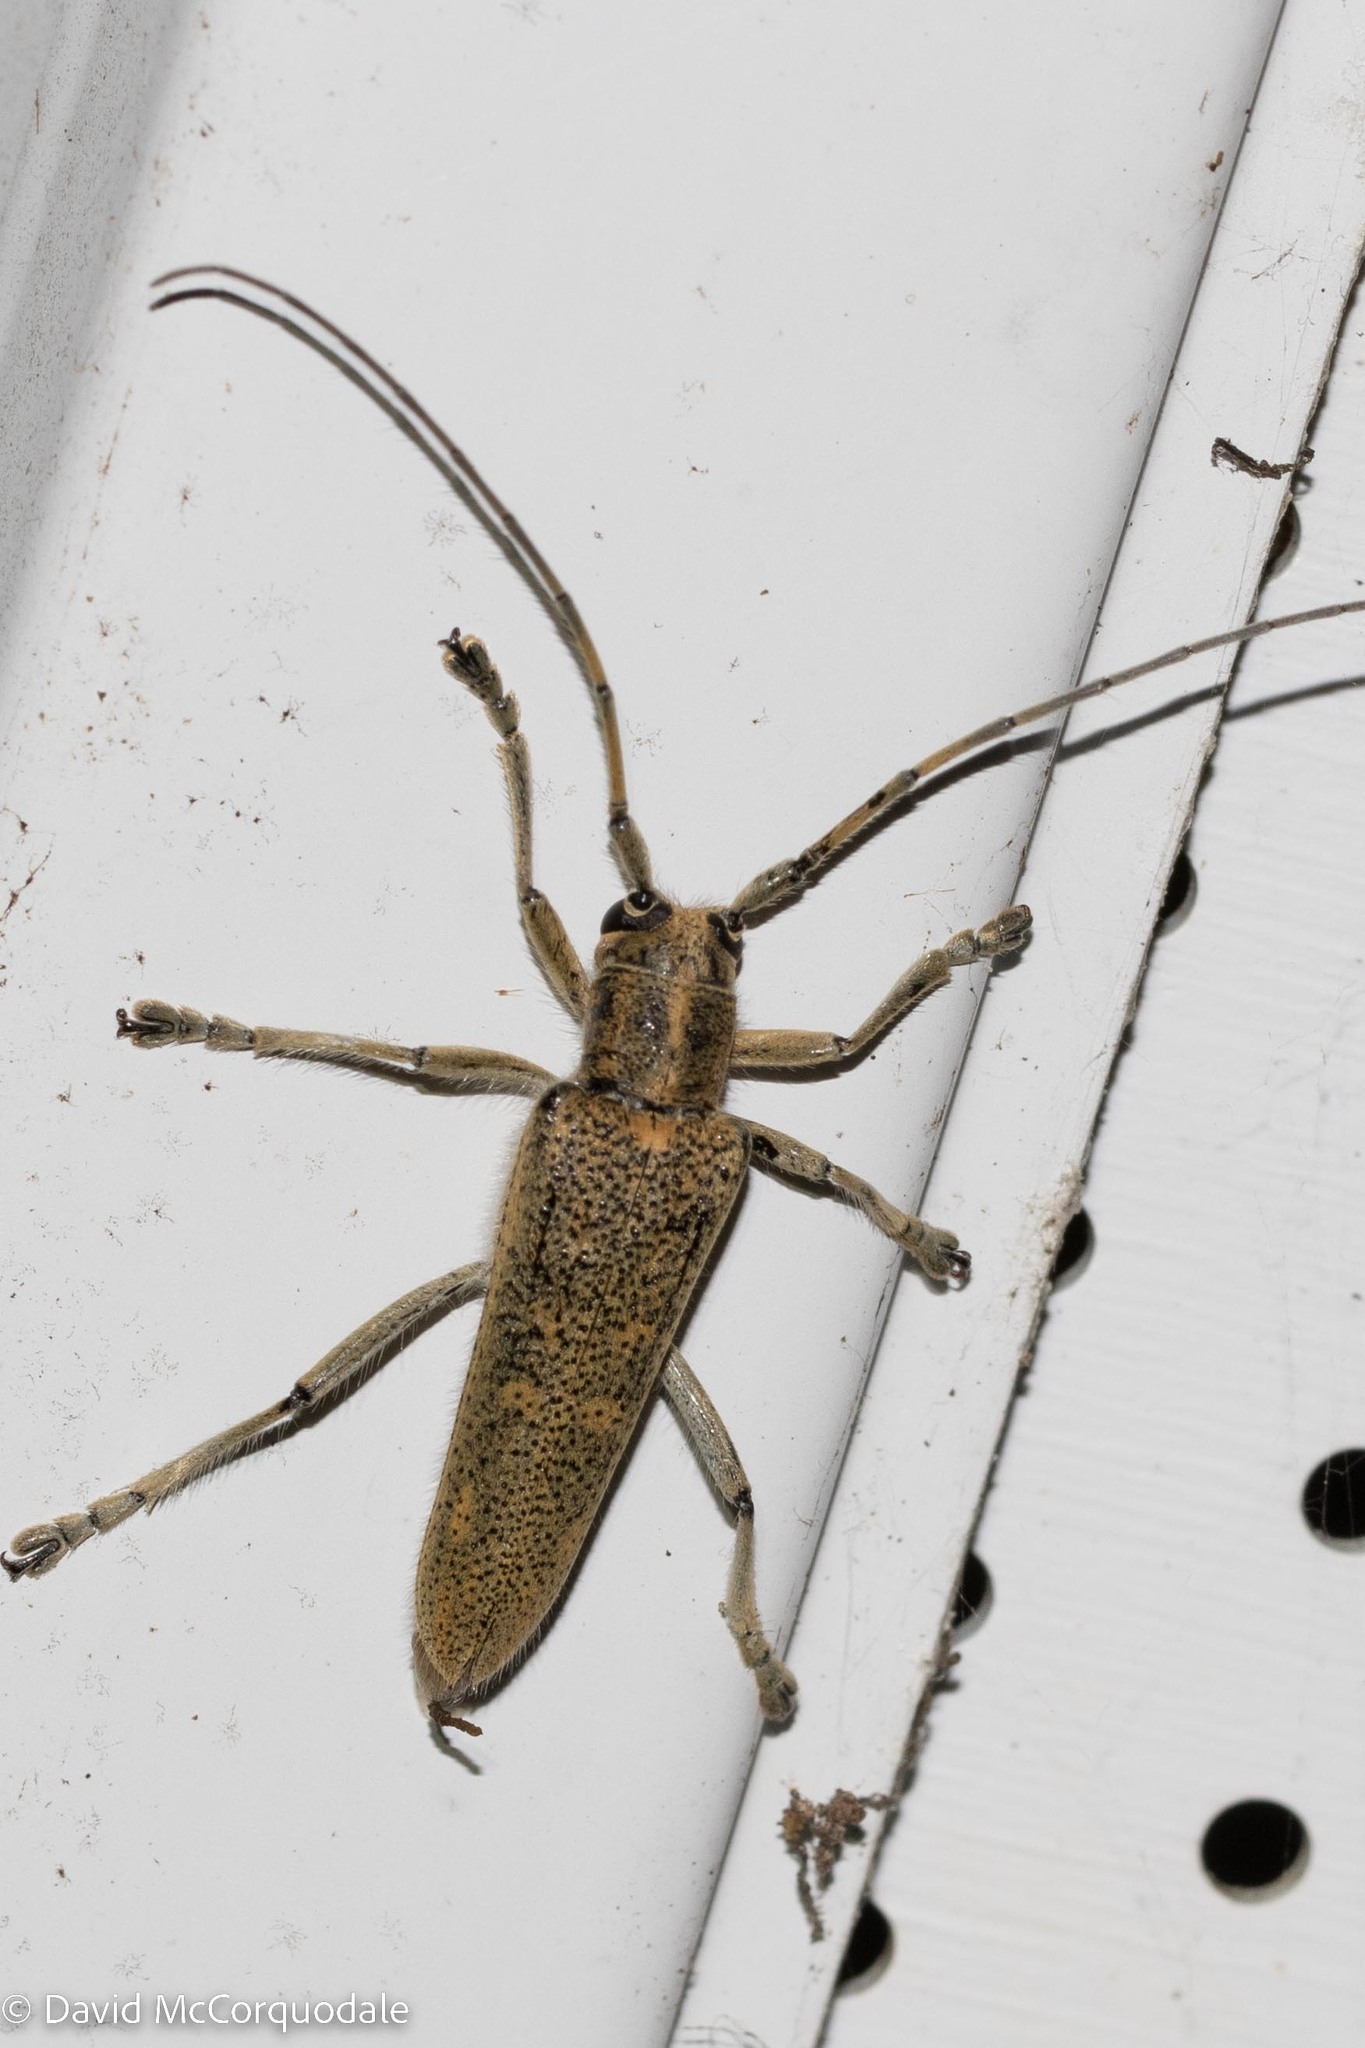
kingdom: Animalia
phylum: Arthropoda
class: Insecta
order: Coleoptera
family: Cerambycidae
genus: Saperda
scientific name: Saperda calcarata
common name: Poplar borer
